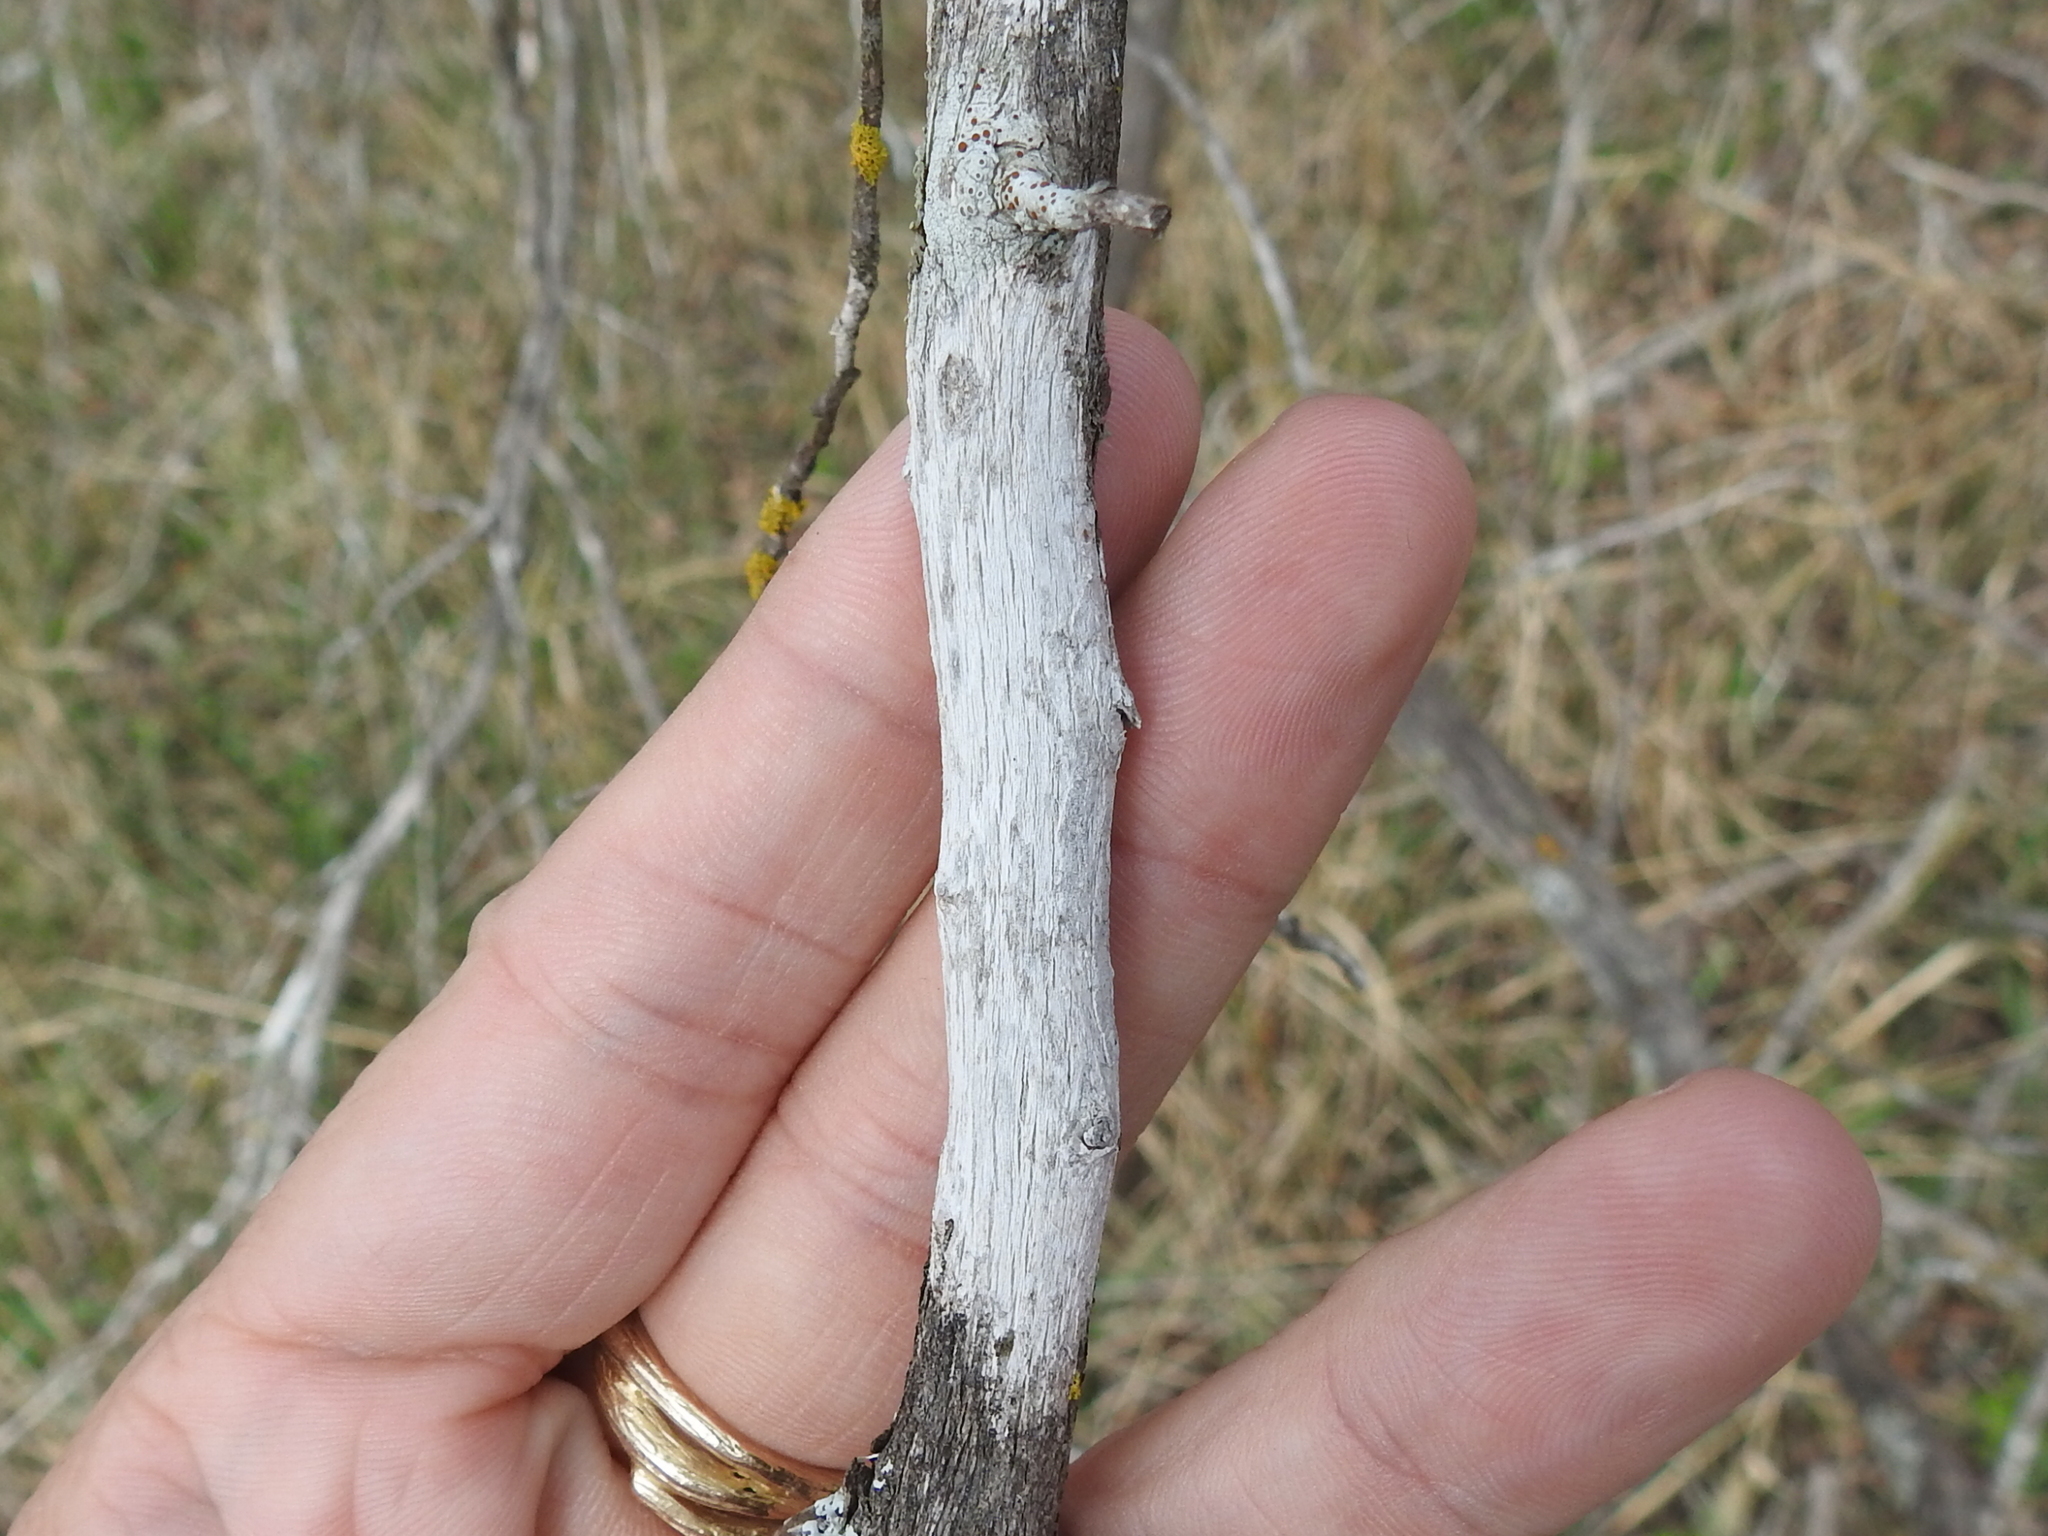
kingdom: Fungi
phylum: Ascomycota
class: Lecanoromycetes
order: Ostropales
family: Stictidaceae
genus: Robergea
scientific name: Robergea
